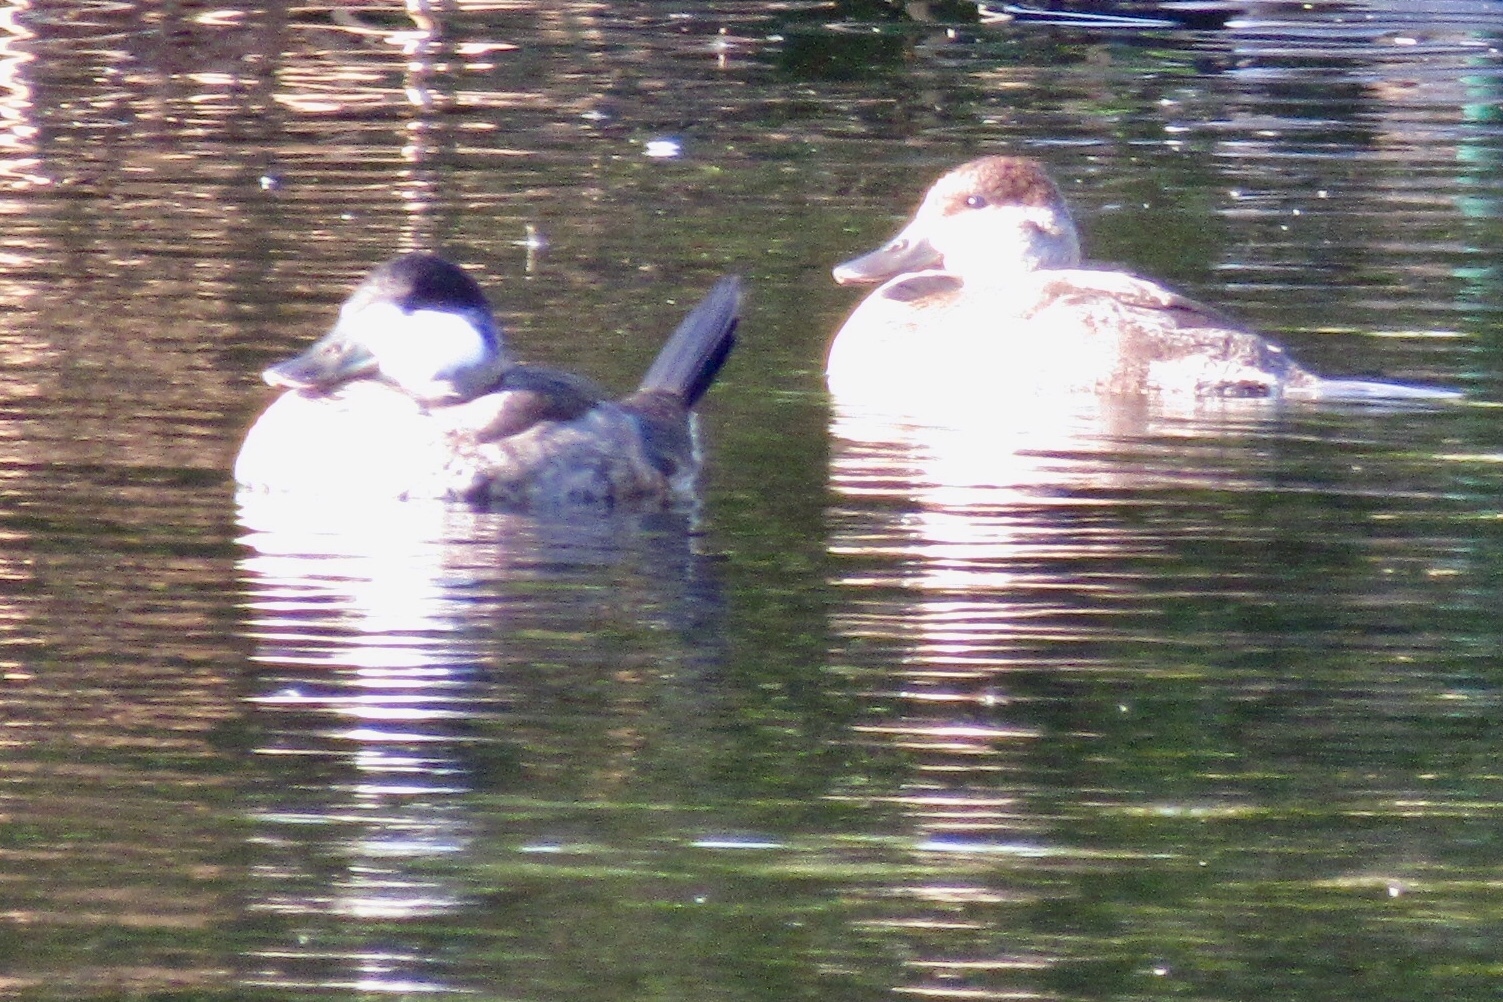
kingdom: Animalia
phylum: Chordata
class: Aves
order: Anseriformes
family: Anatidae
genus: Oxyura
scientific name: Oxyura jamaicensis
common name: Ruddy duck
